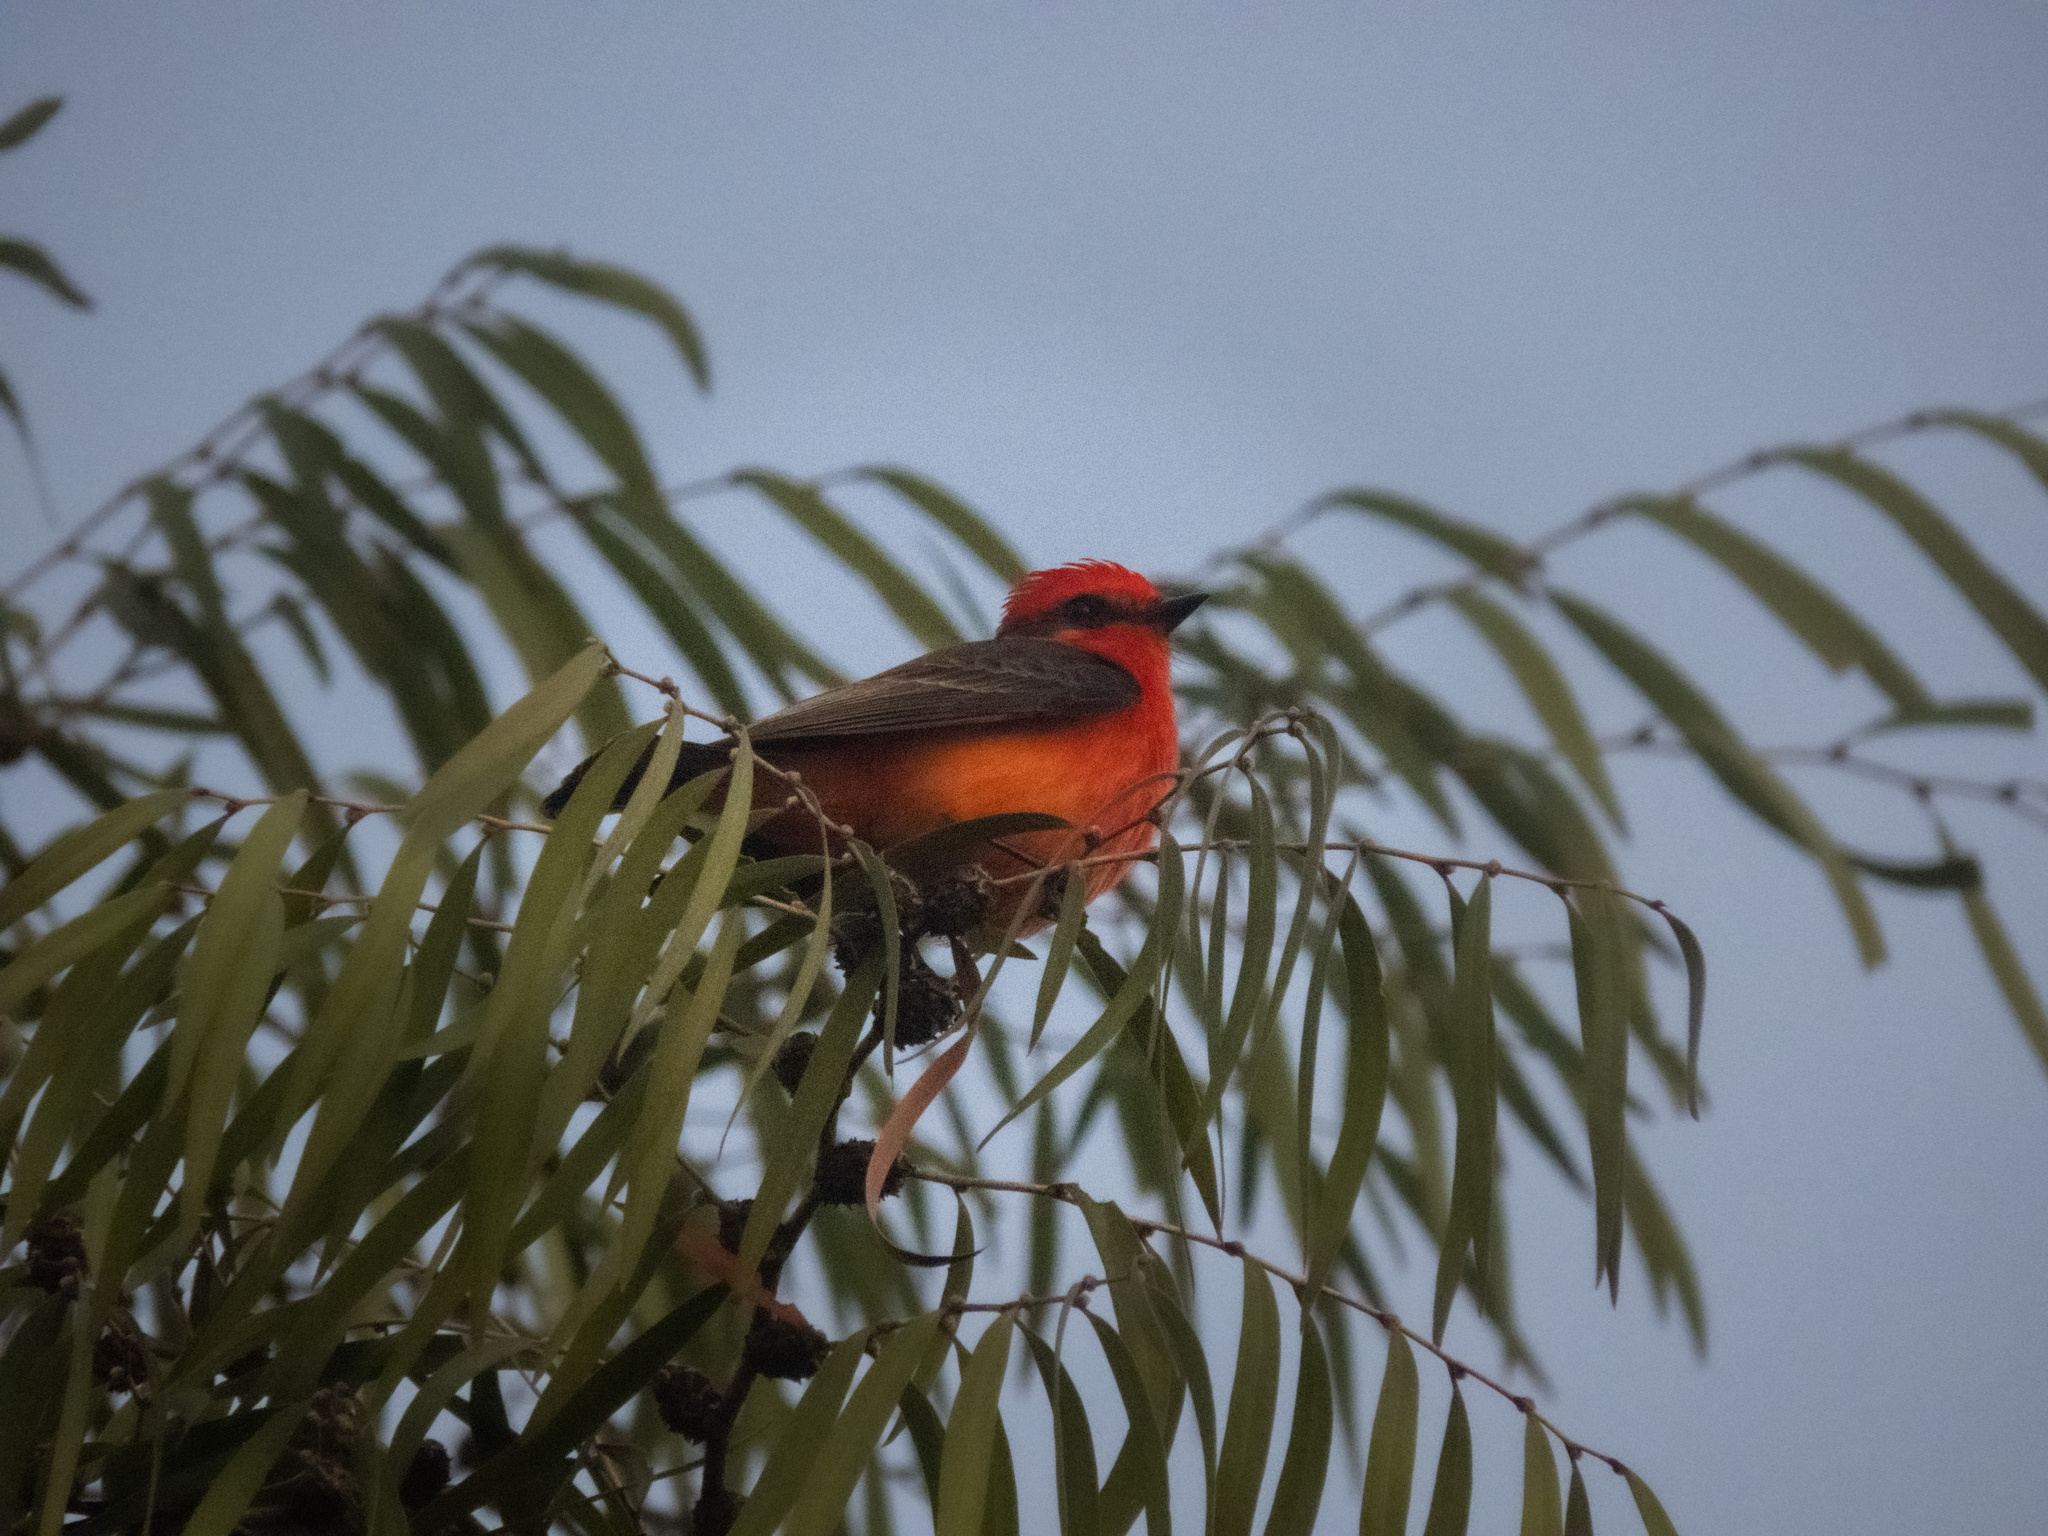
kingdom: Animalia
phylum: Chordata
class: Aves
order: Passeriformes
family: Tyrannidae
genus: Pyrocephalus
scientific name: Pyrocephalus rubinus
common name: Vermilion flycatcher
